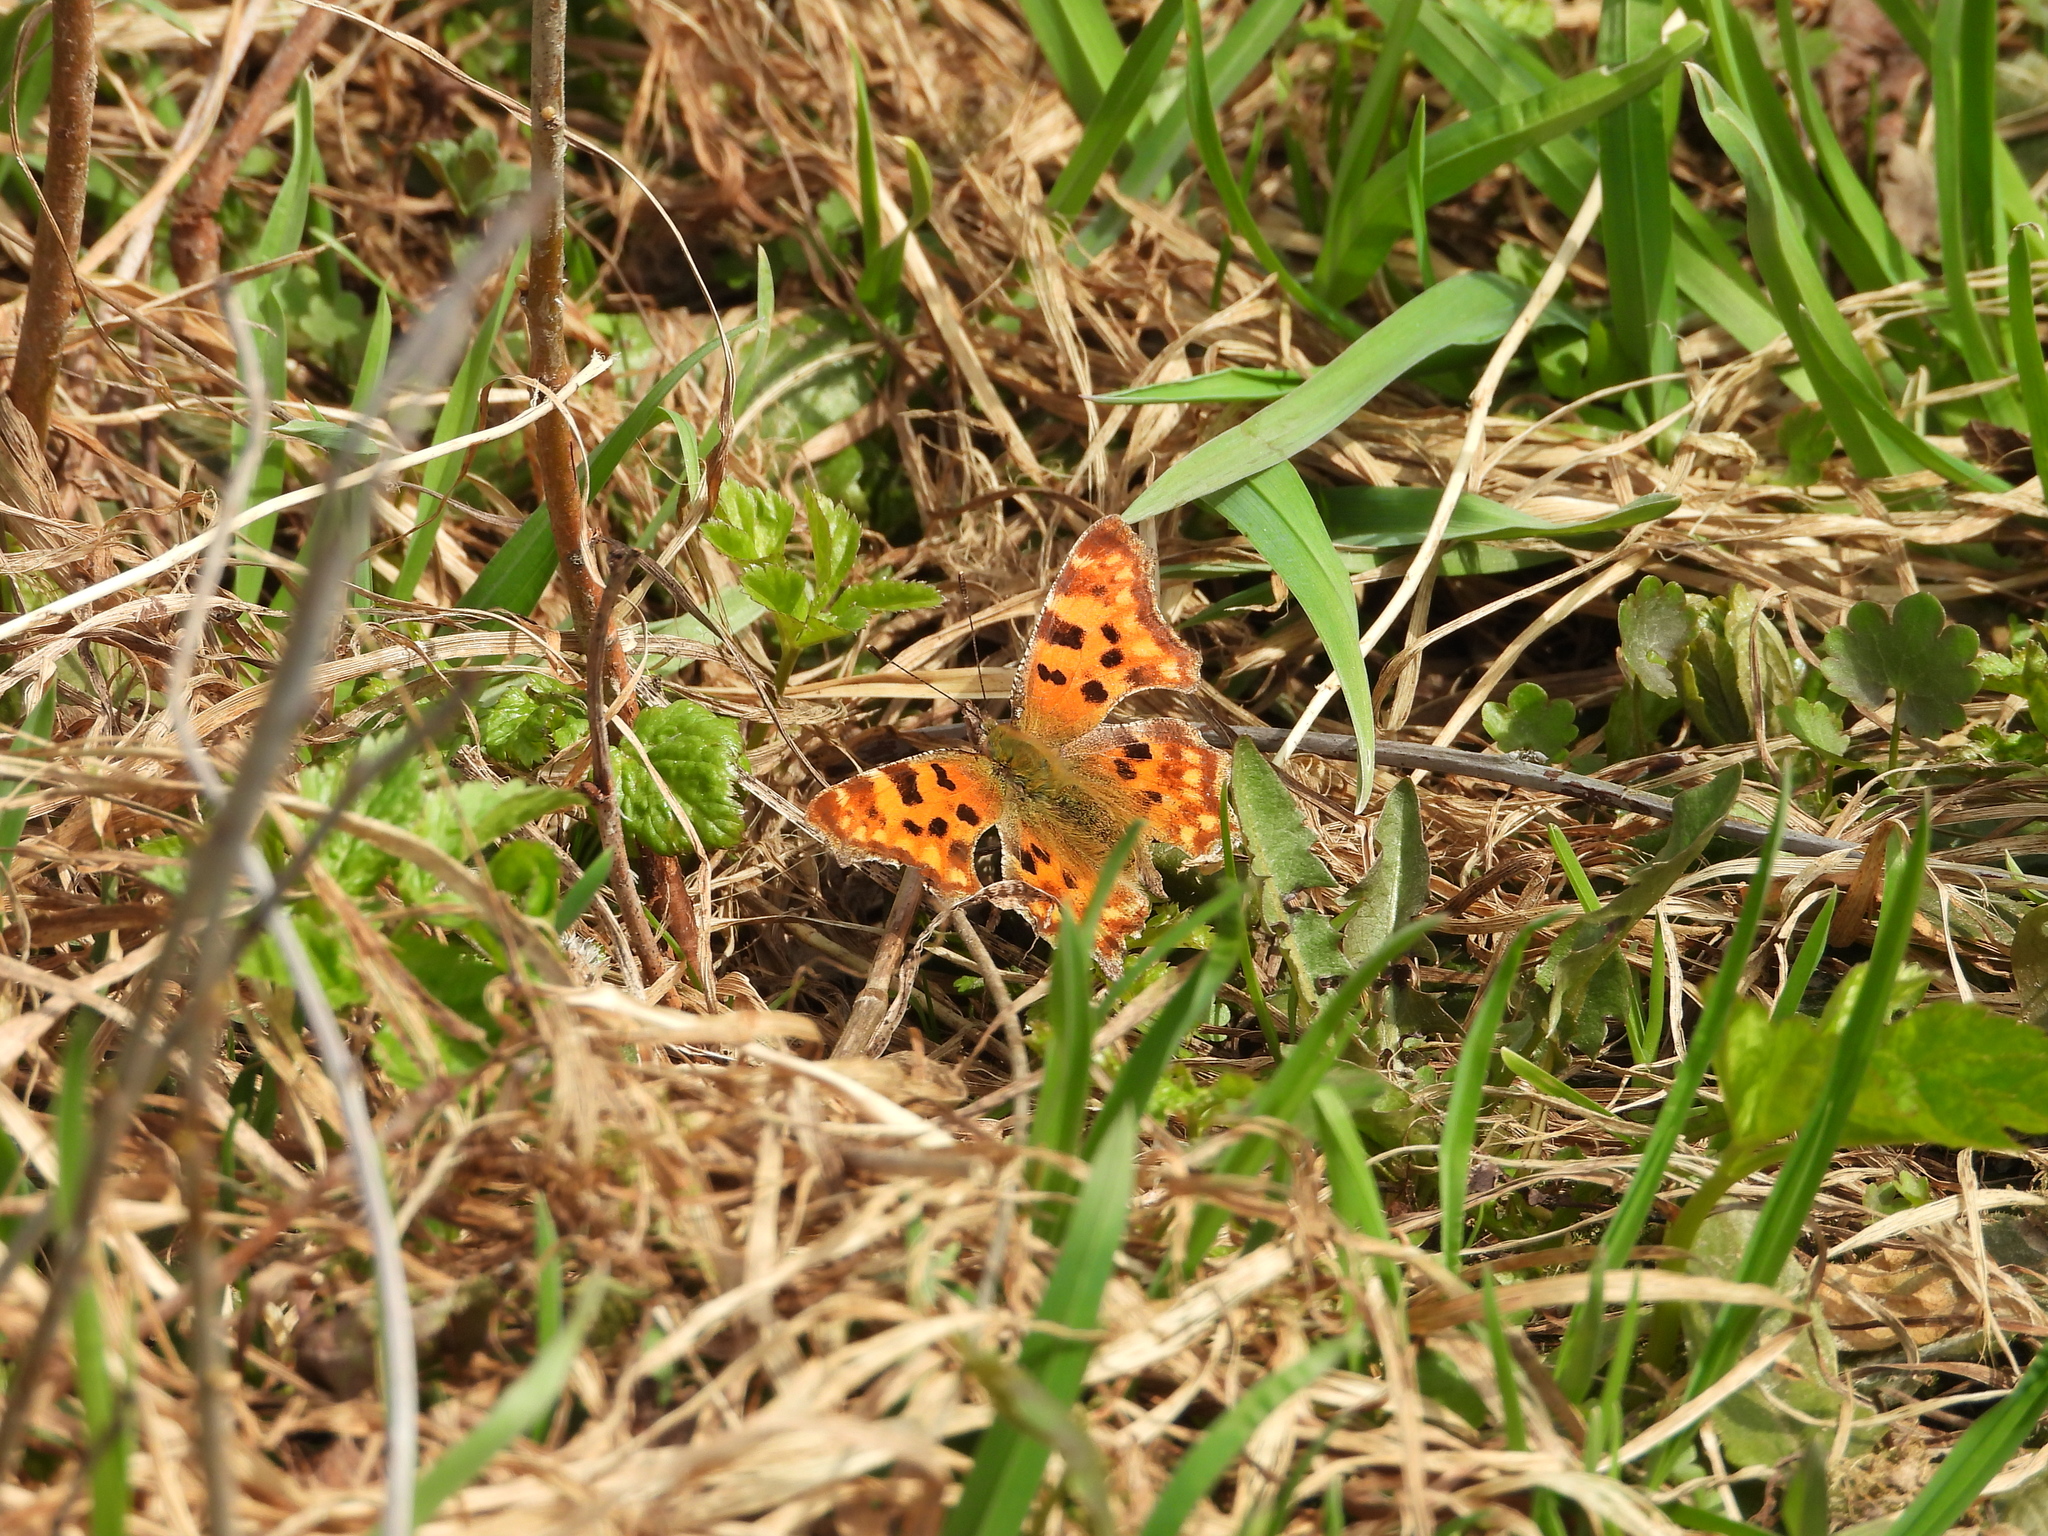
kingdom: Animalia
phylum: Arthropoda
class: Insecta
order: Lepidoptera
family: Nymphalidae
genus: Polygonia
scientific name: Polygonia c-album
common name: Comma
